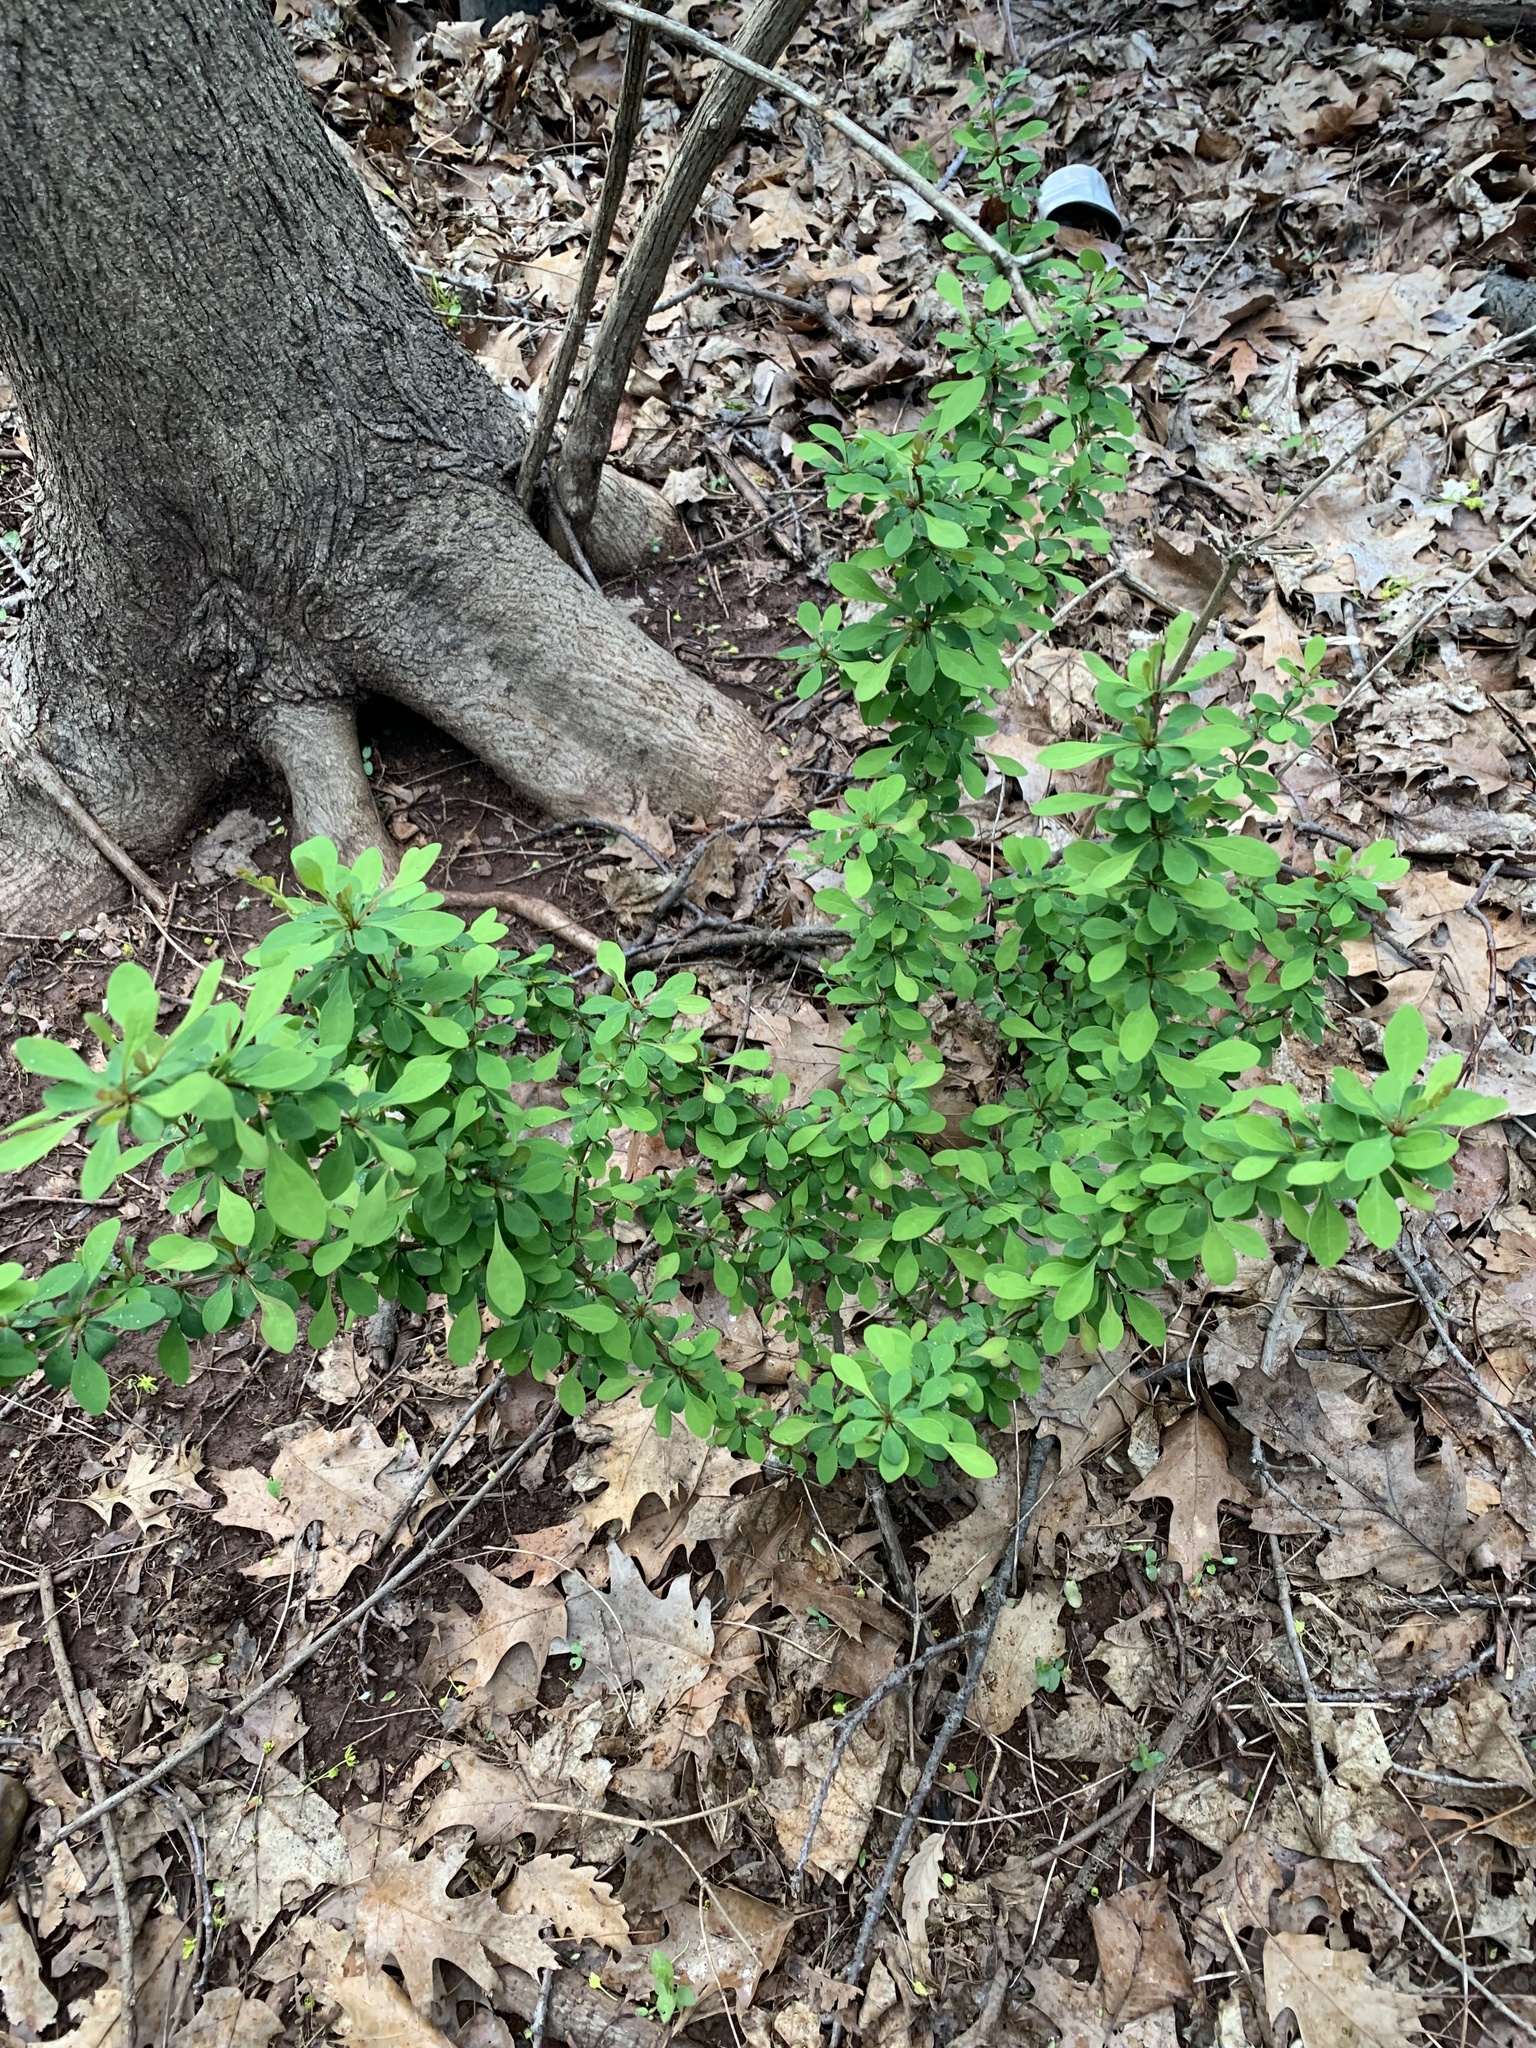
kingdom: Plantae
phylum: Tracheophyta
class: Magnoliopsida
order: Ranunculales
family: Berberidaceae
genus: Berberis
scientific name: Berberis thunbergii
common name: Japanese barberry
